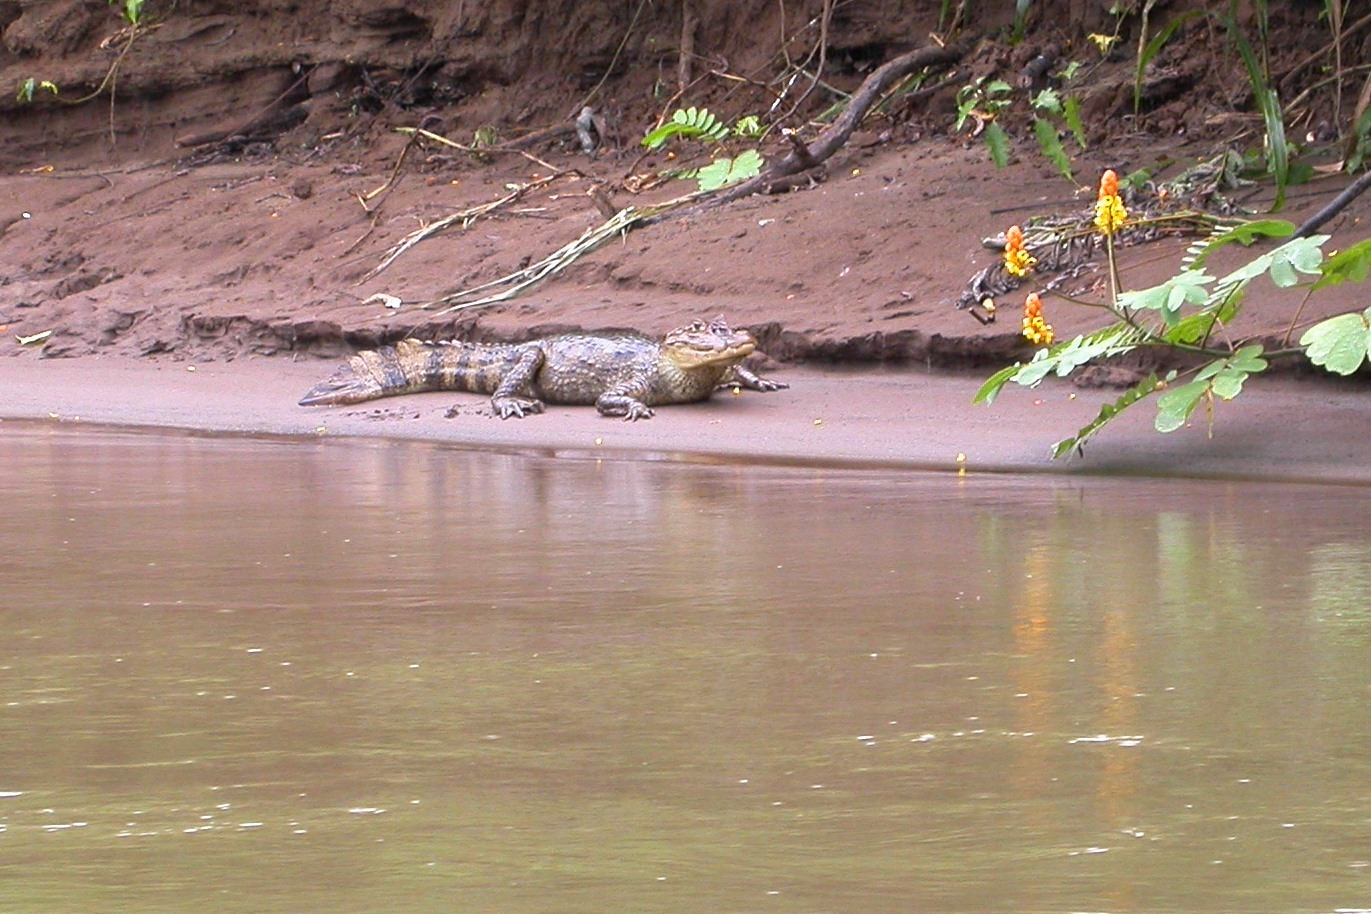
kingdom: Animalia
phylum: Chordata
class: Crocodylia
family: Alligatoridae
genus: Caiman
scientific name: Caiman crocodilus
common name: Common caiman
